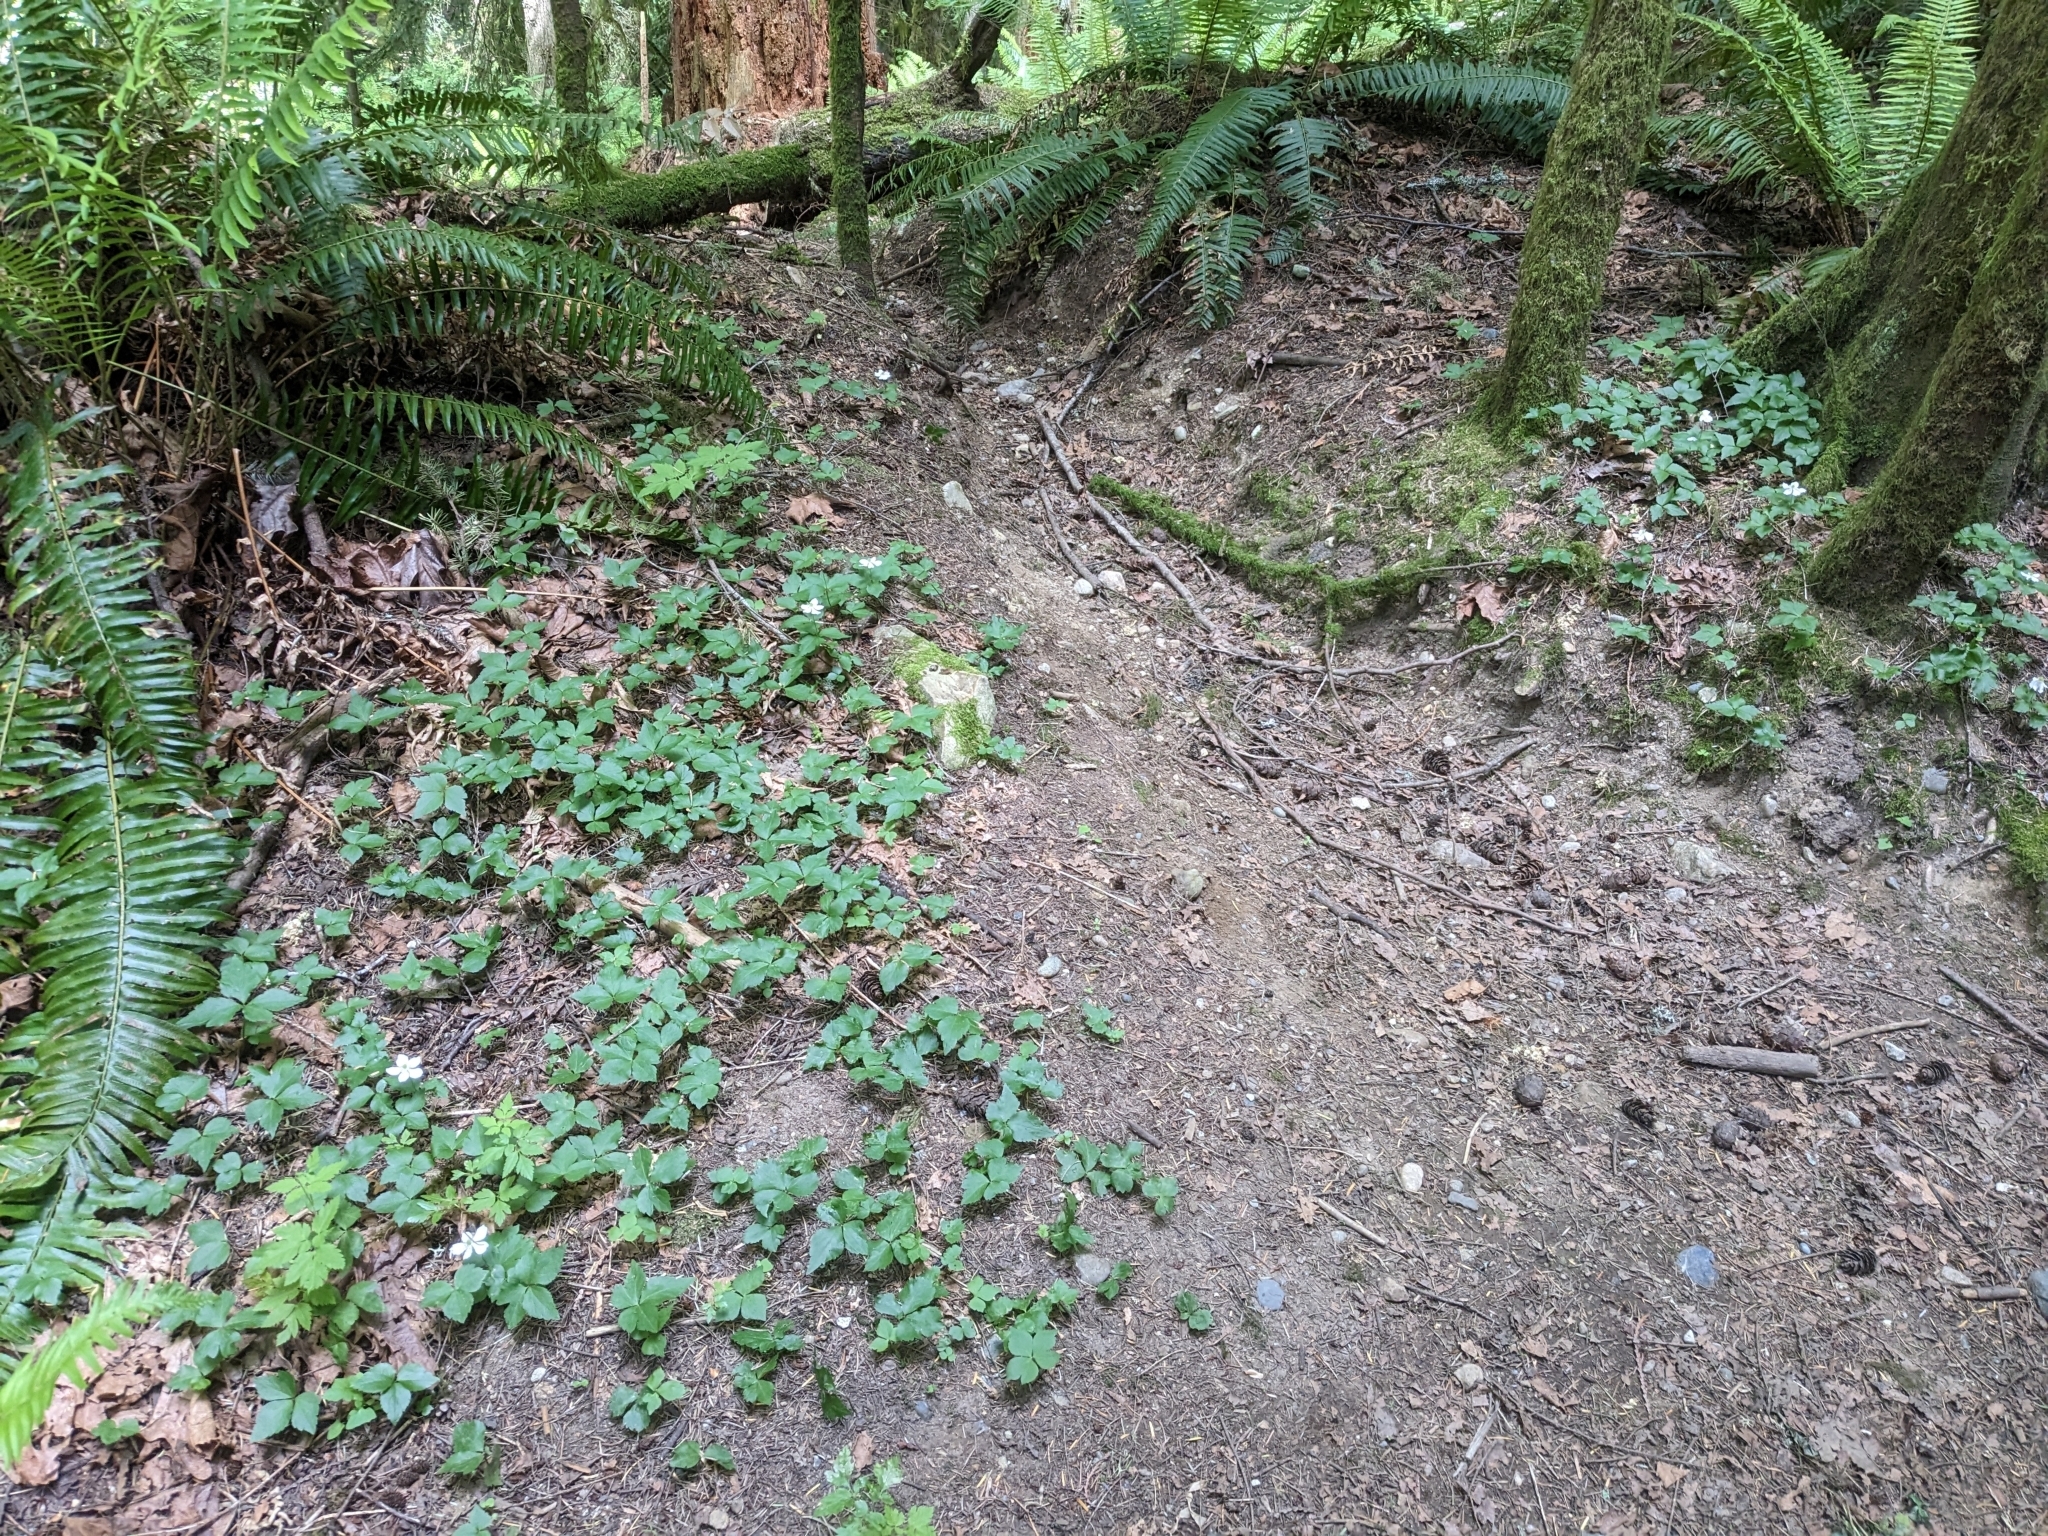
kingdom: Plantae
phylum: Tracheophyta
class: Magnoliopsida
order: Ranunculales
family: Ranunculaceae
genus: Anemonastrum
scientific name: Anemonastrum deltoideum
